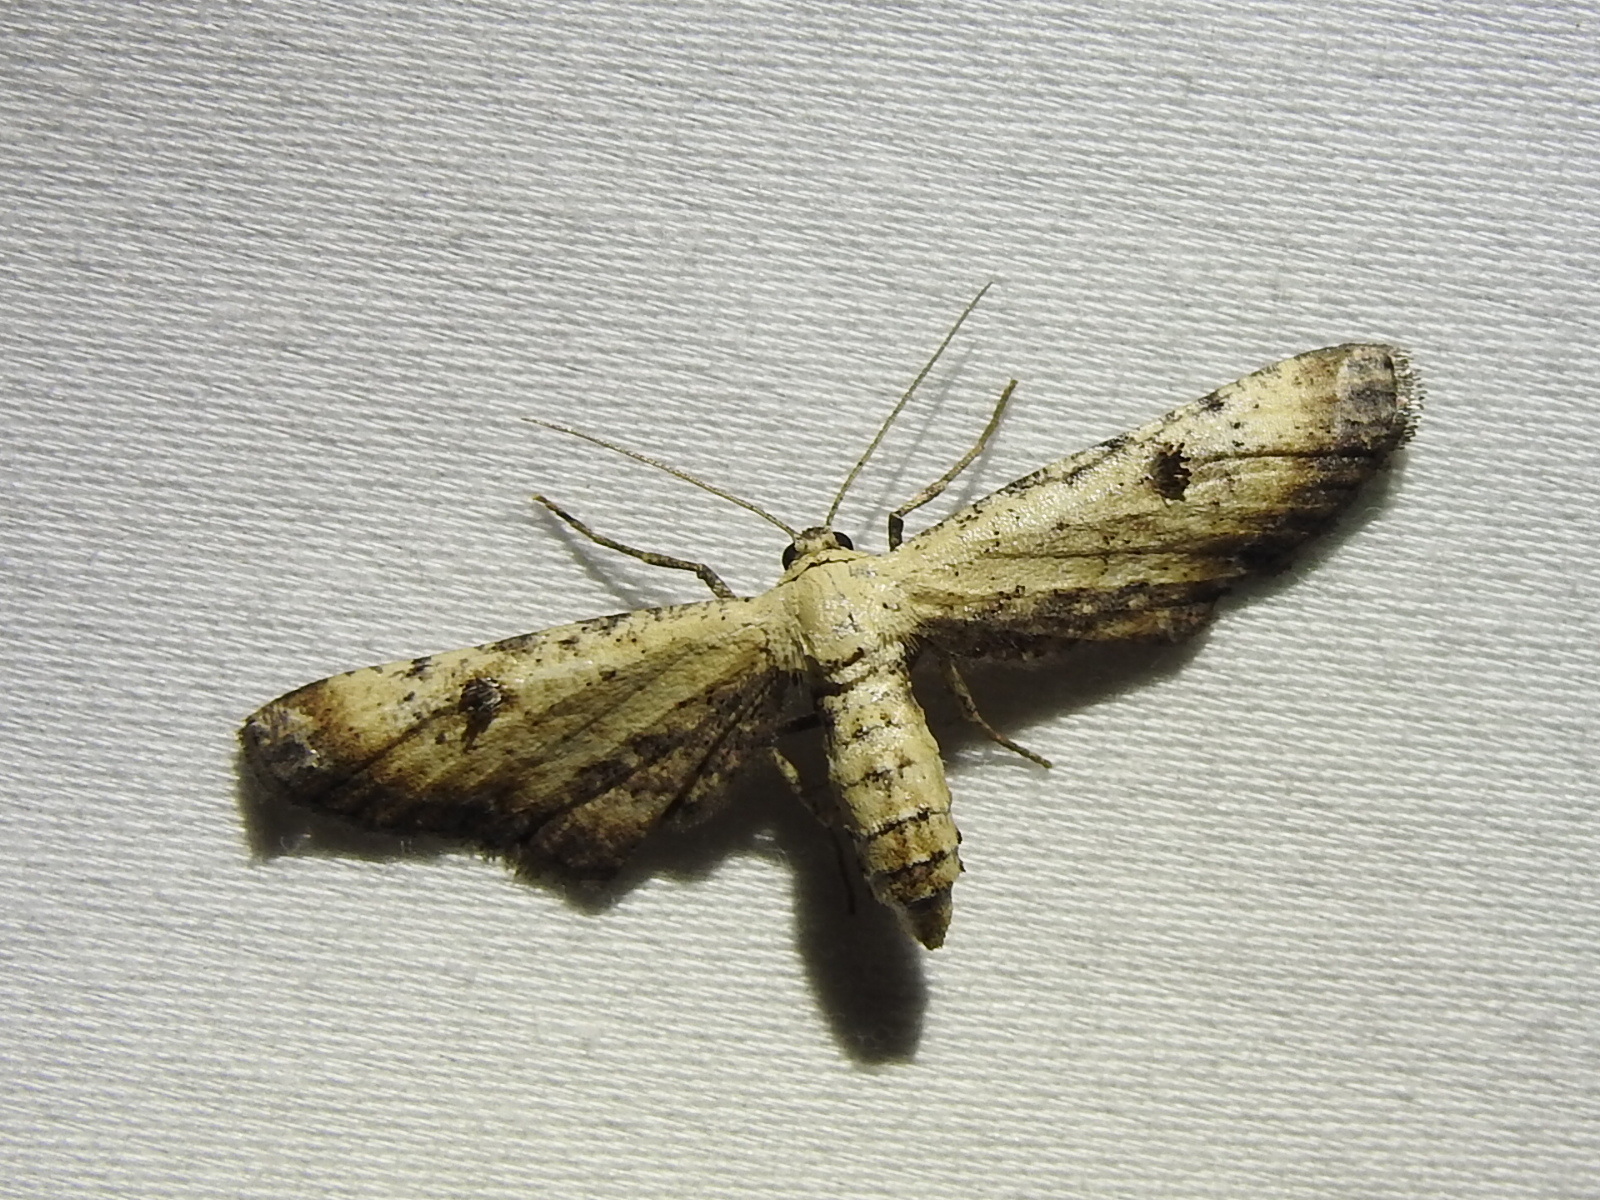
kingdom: Animalia
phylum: Arthropoda
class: Insecta
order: Lepidoptera
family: Geometridae
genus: Tornos
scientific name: Tornos scolopacinaria
